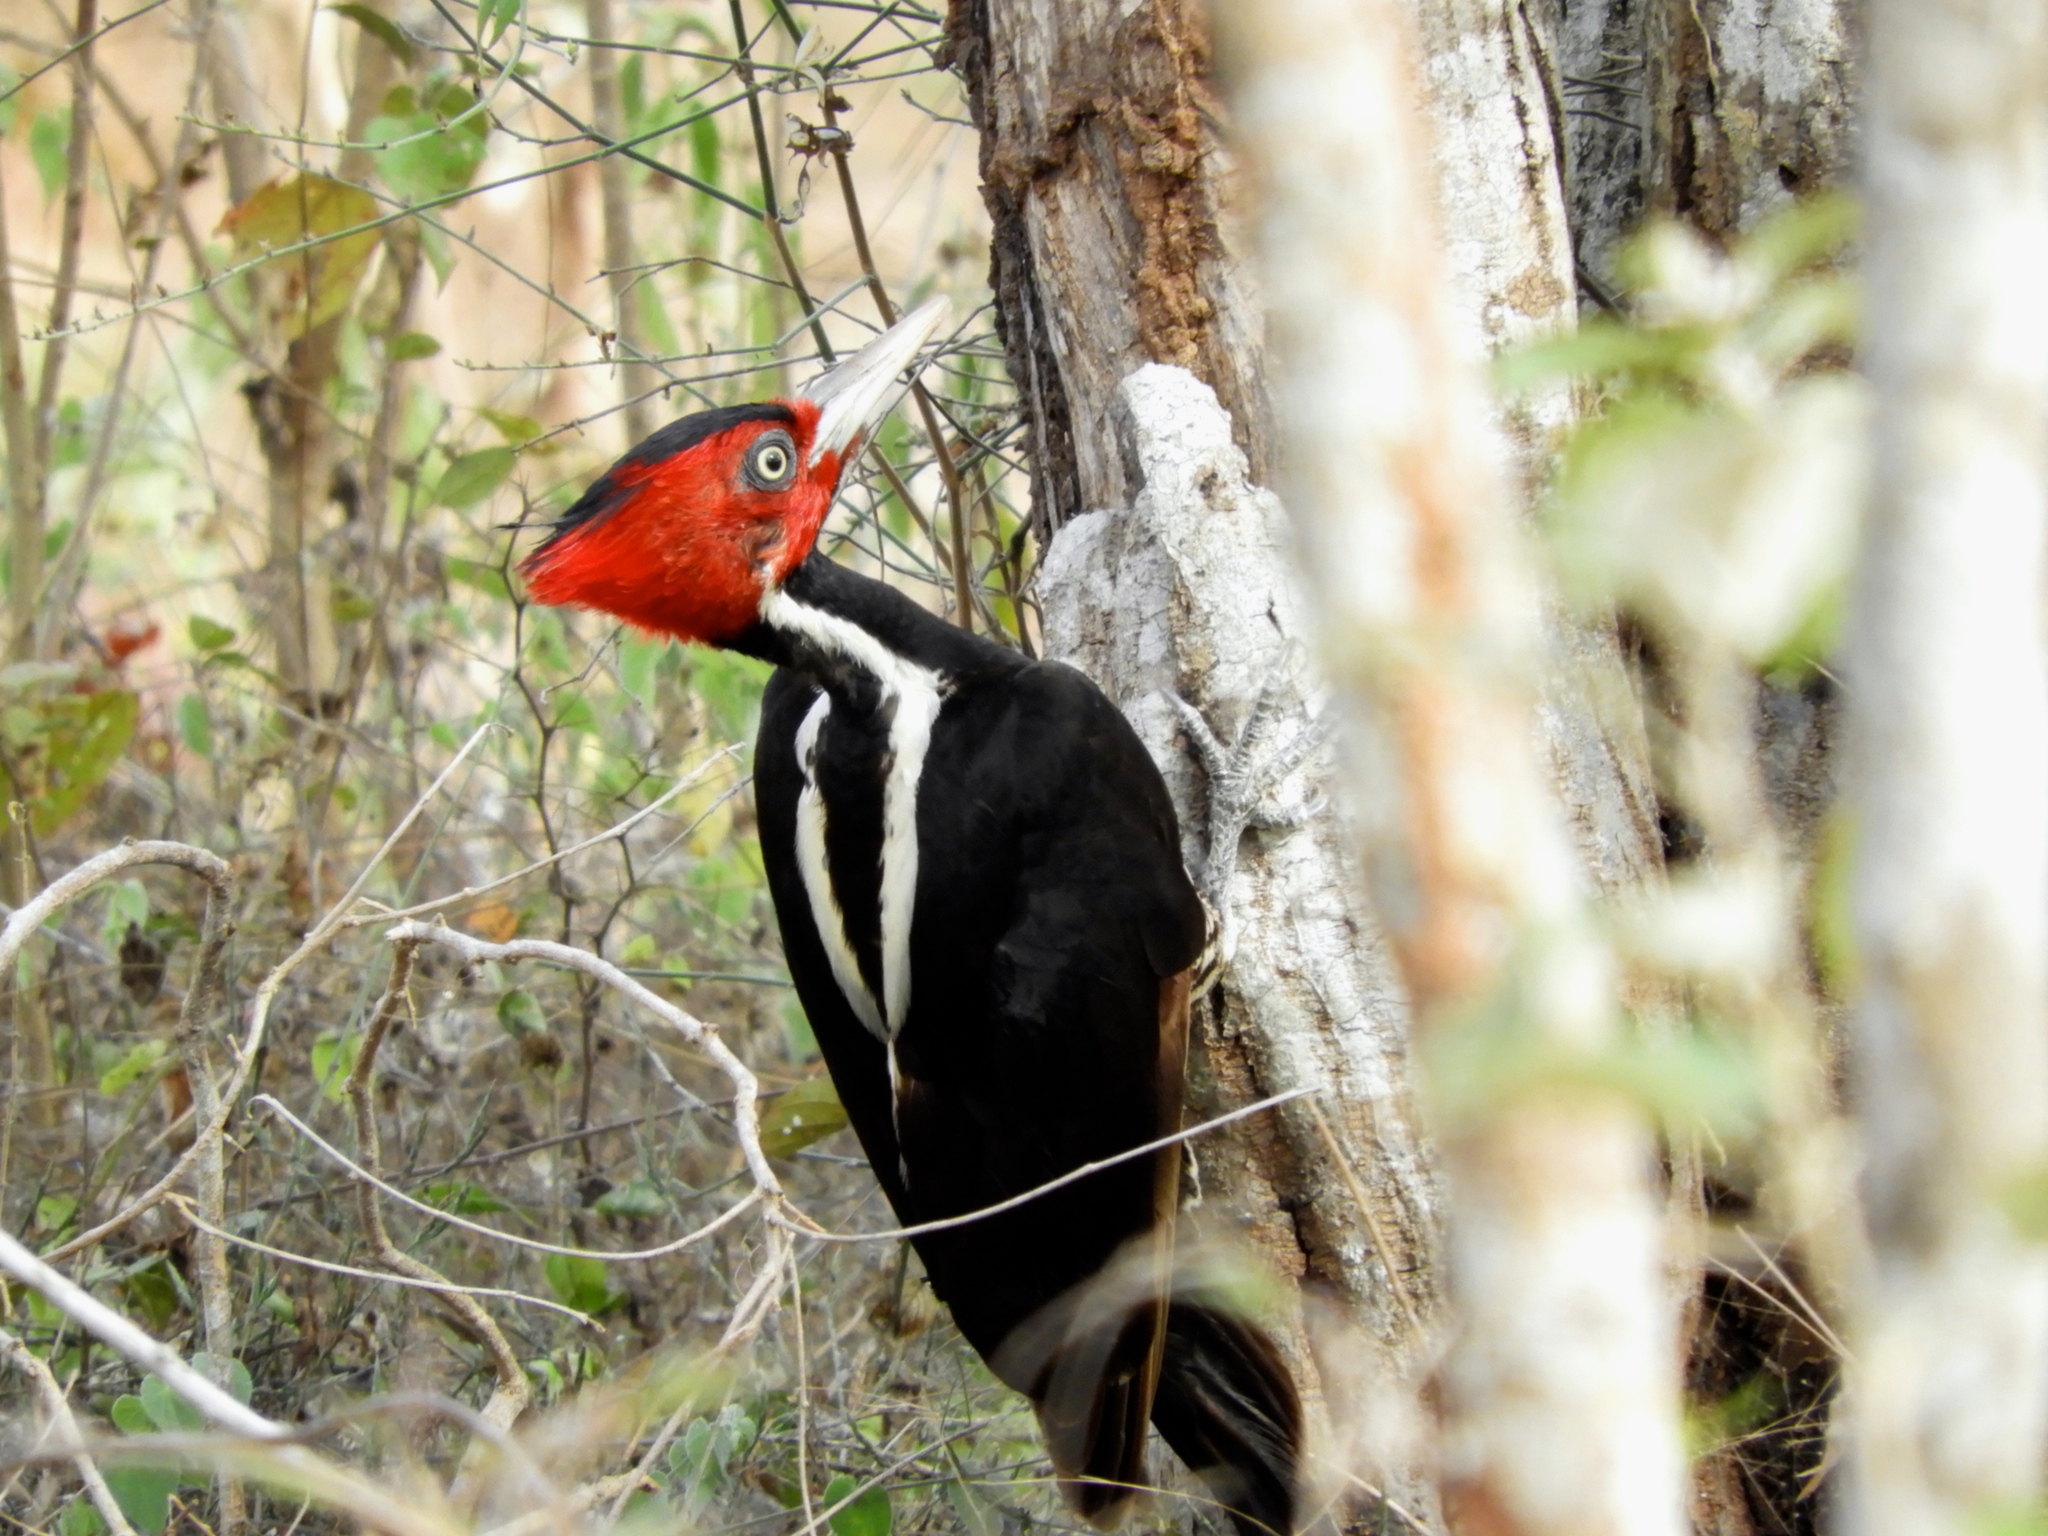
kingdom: Animalia
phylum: Chordata
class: Aves
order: Piciformes
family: Picidae
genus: Campephilus
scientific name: Campephilus guatemalensis
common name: Pale-billed woodpecker
